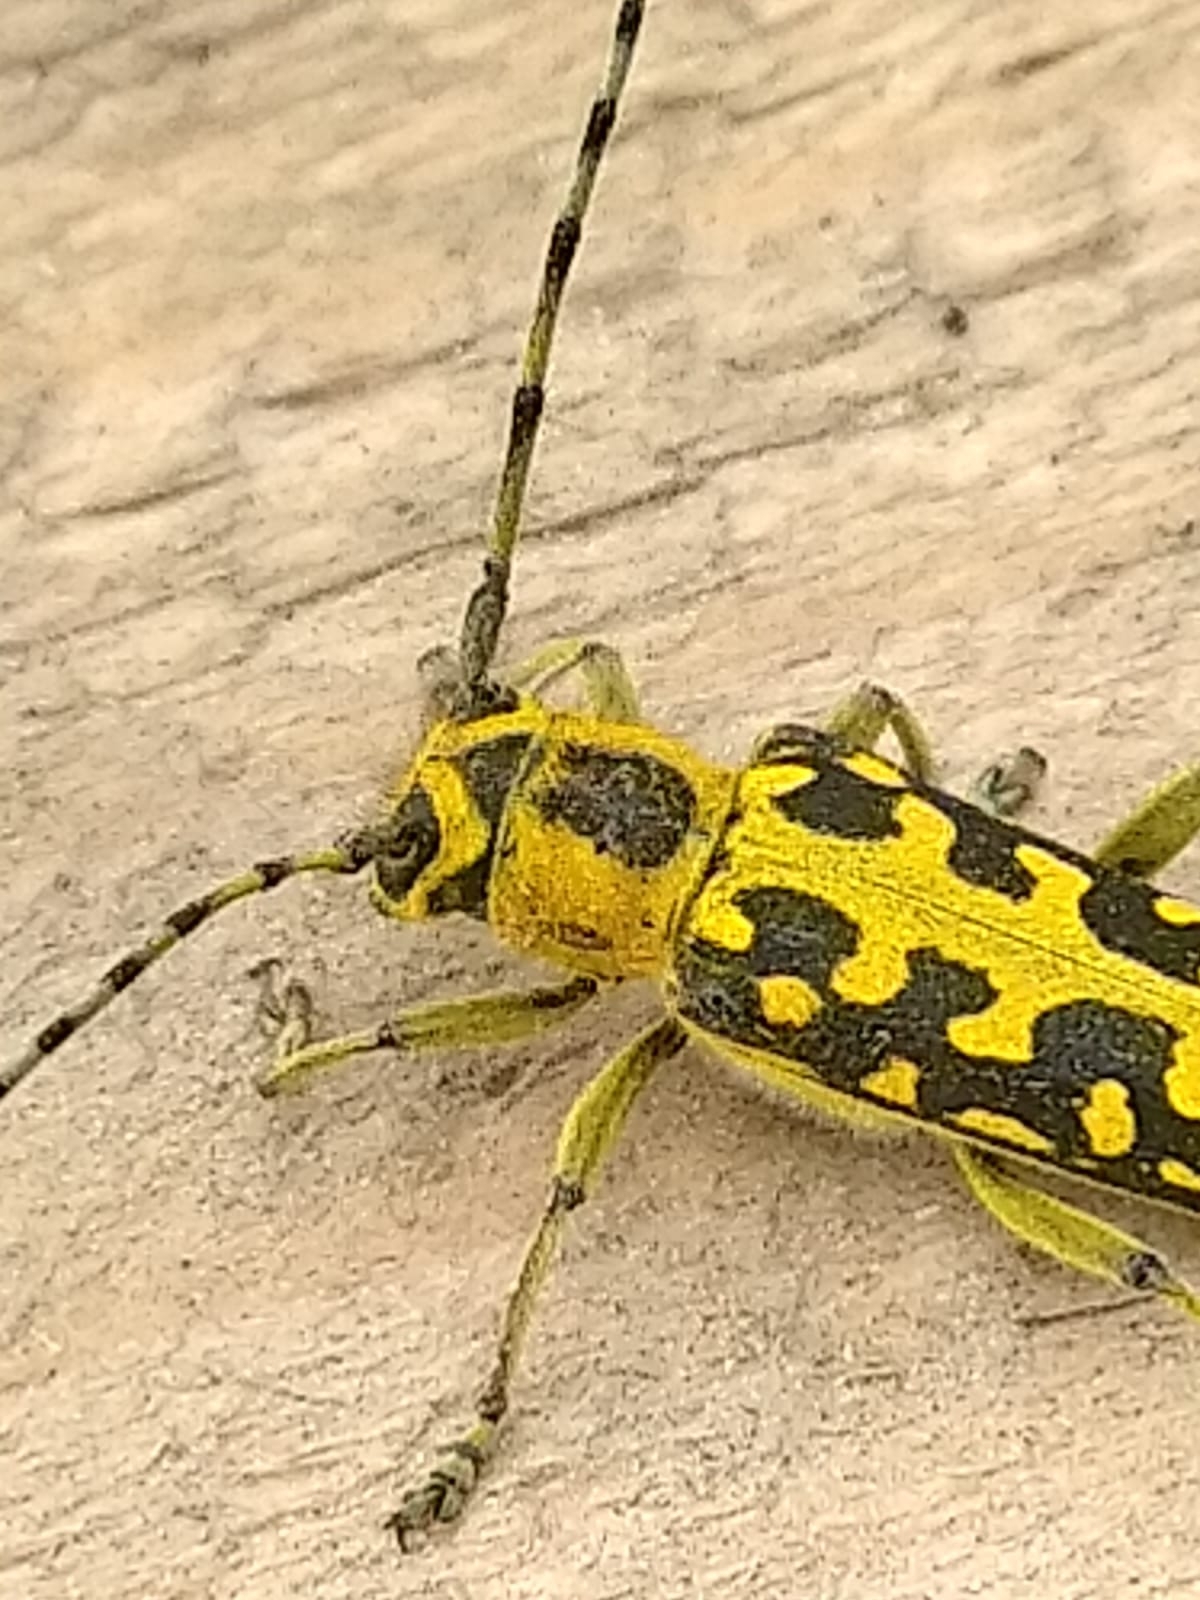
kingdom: Animalia
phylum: Arthropoda
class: Insecta
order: Coleoptera
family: Cerambycidae
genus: Saperda
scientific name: Saperda scalaris
